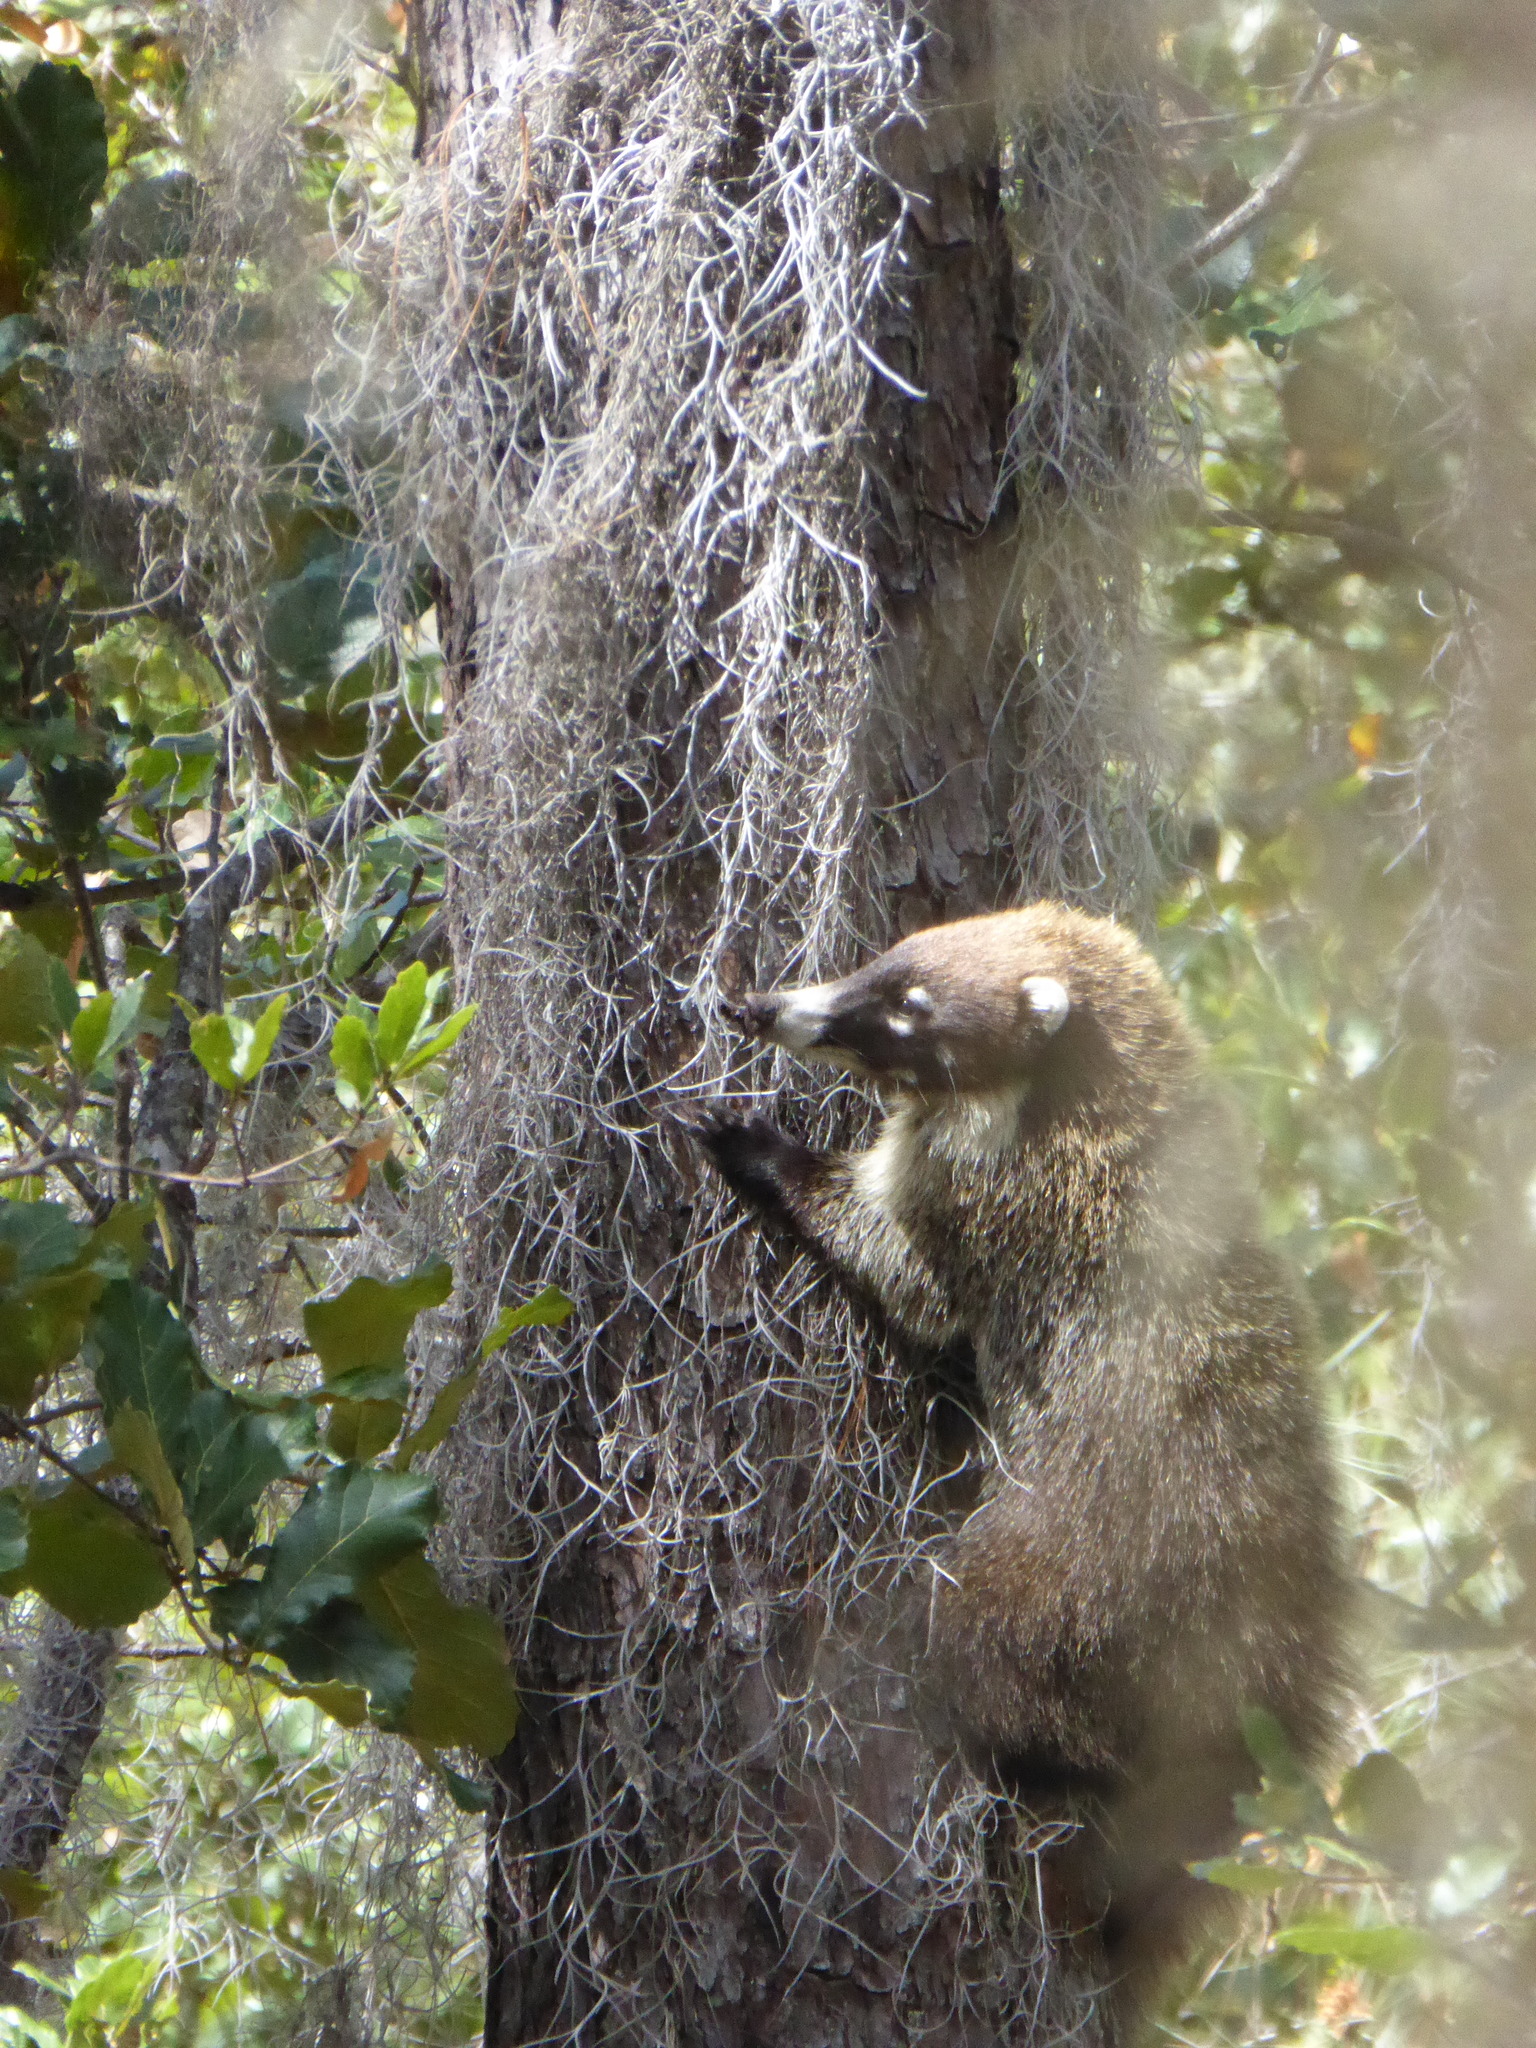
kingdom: Animalia
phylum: Chordata
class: Mammalia
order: Carnivora
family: Procyonidae
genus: Nasua
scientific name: Nasua narica
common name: White-nosed coati
